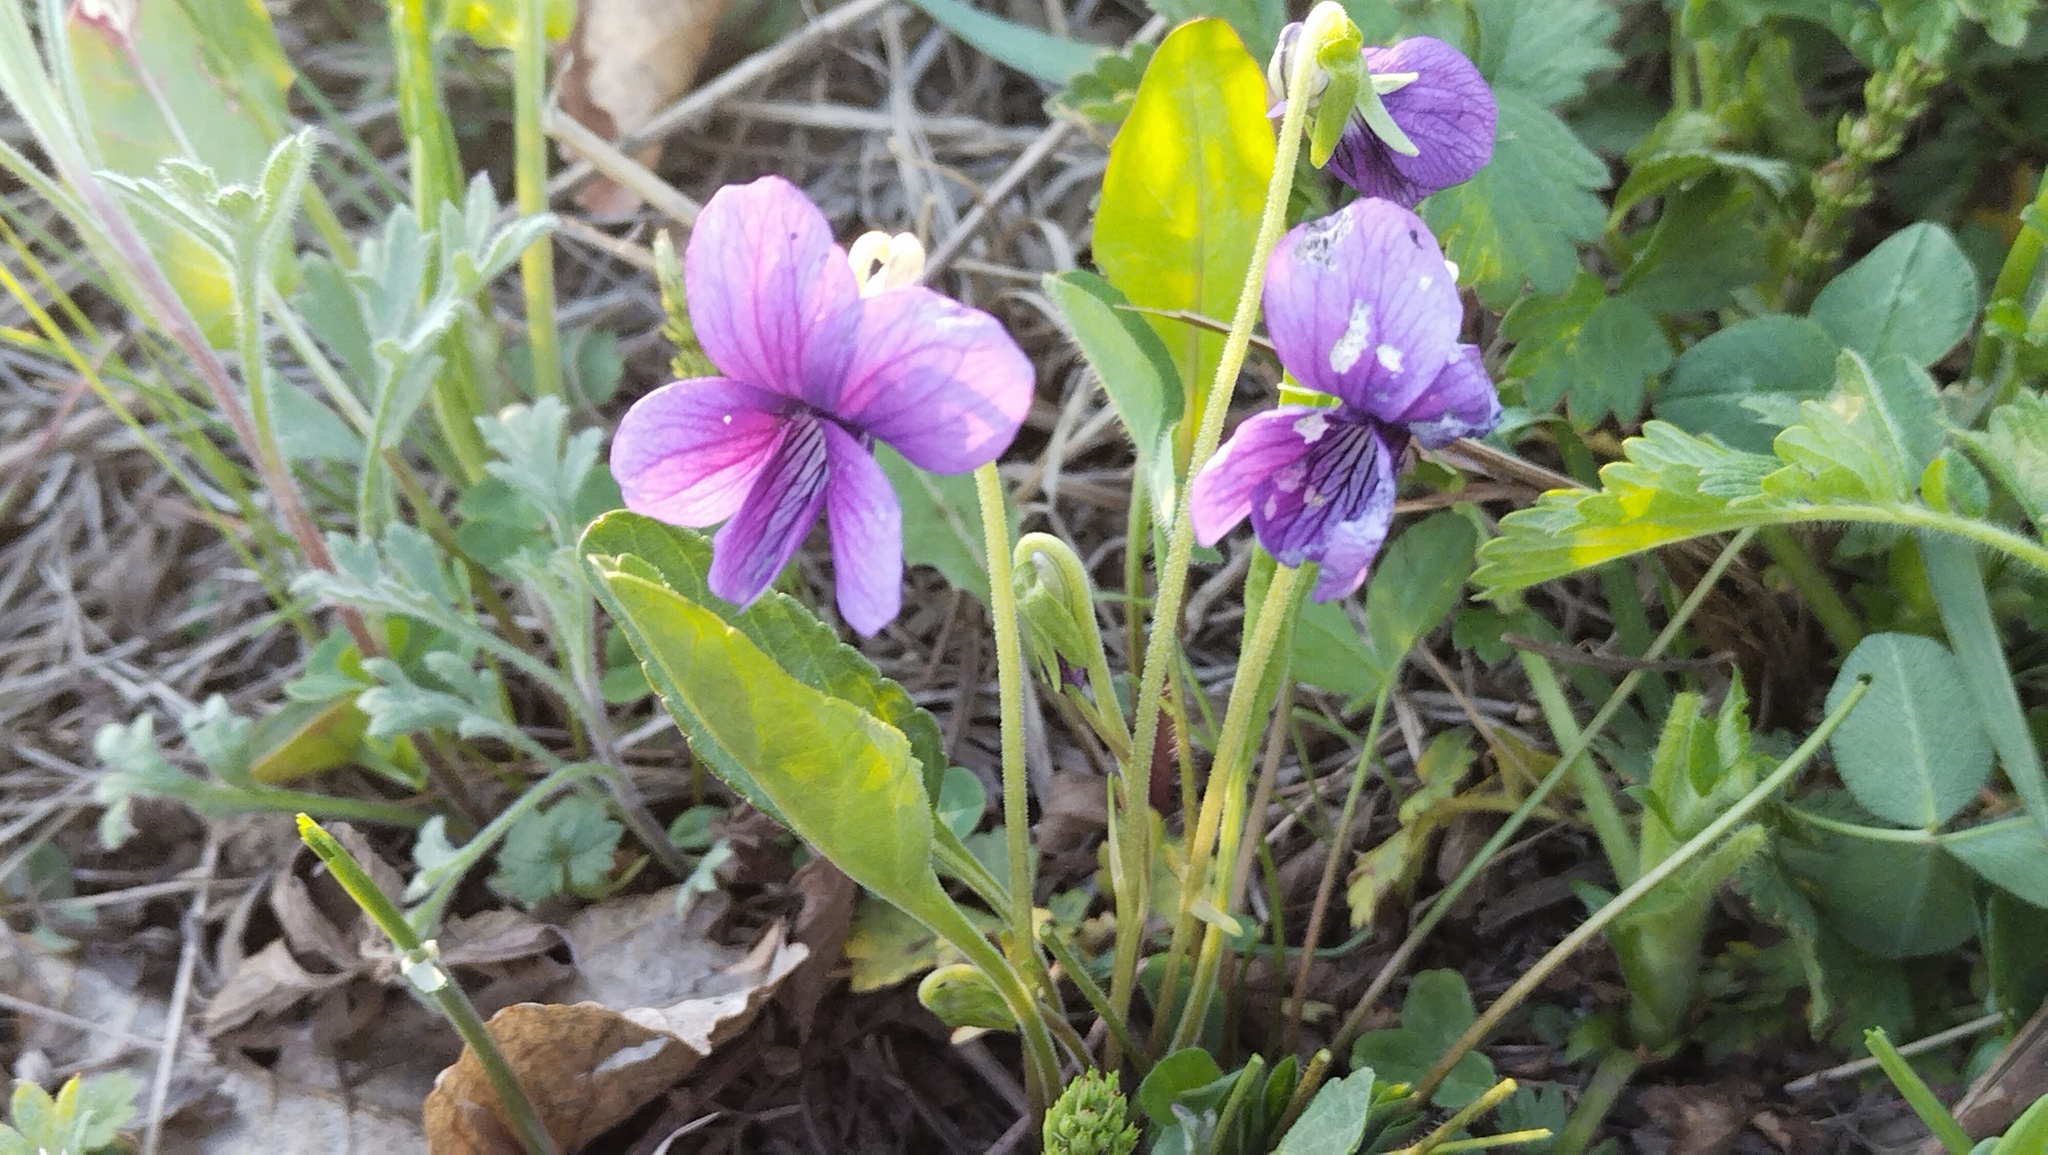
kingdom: Plantae
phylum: Tracheophyta
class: Magnoliopsida
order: Malpighiales
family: Violaceae
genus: Viola
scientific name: Viola mandshurica
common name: Manchuria violet
